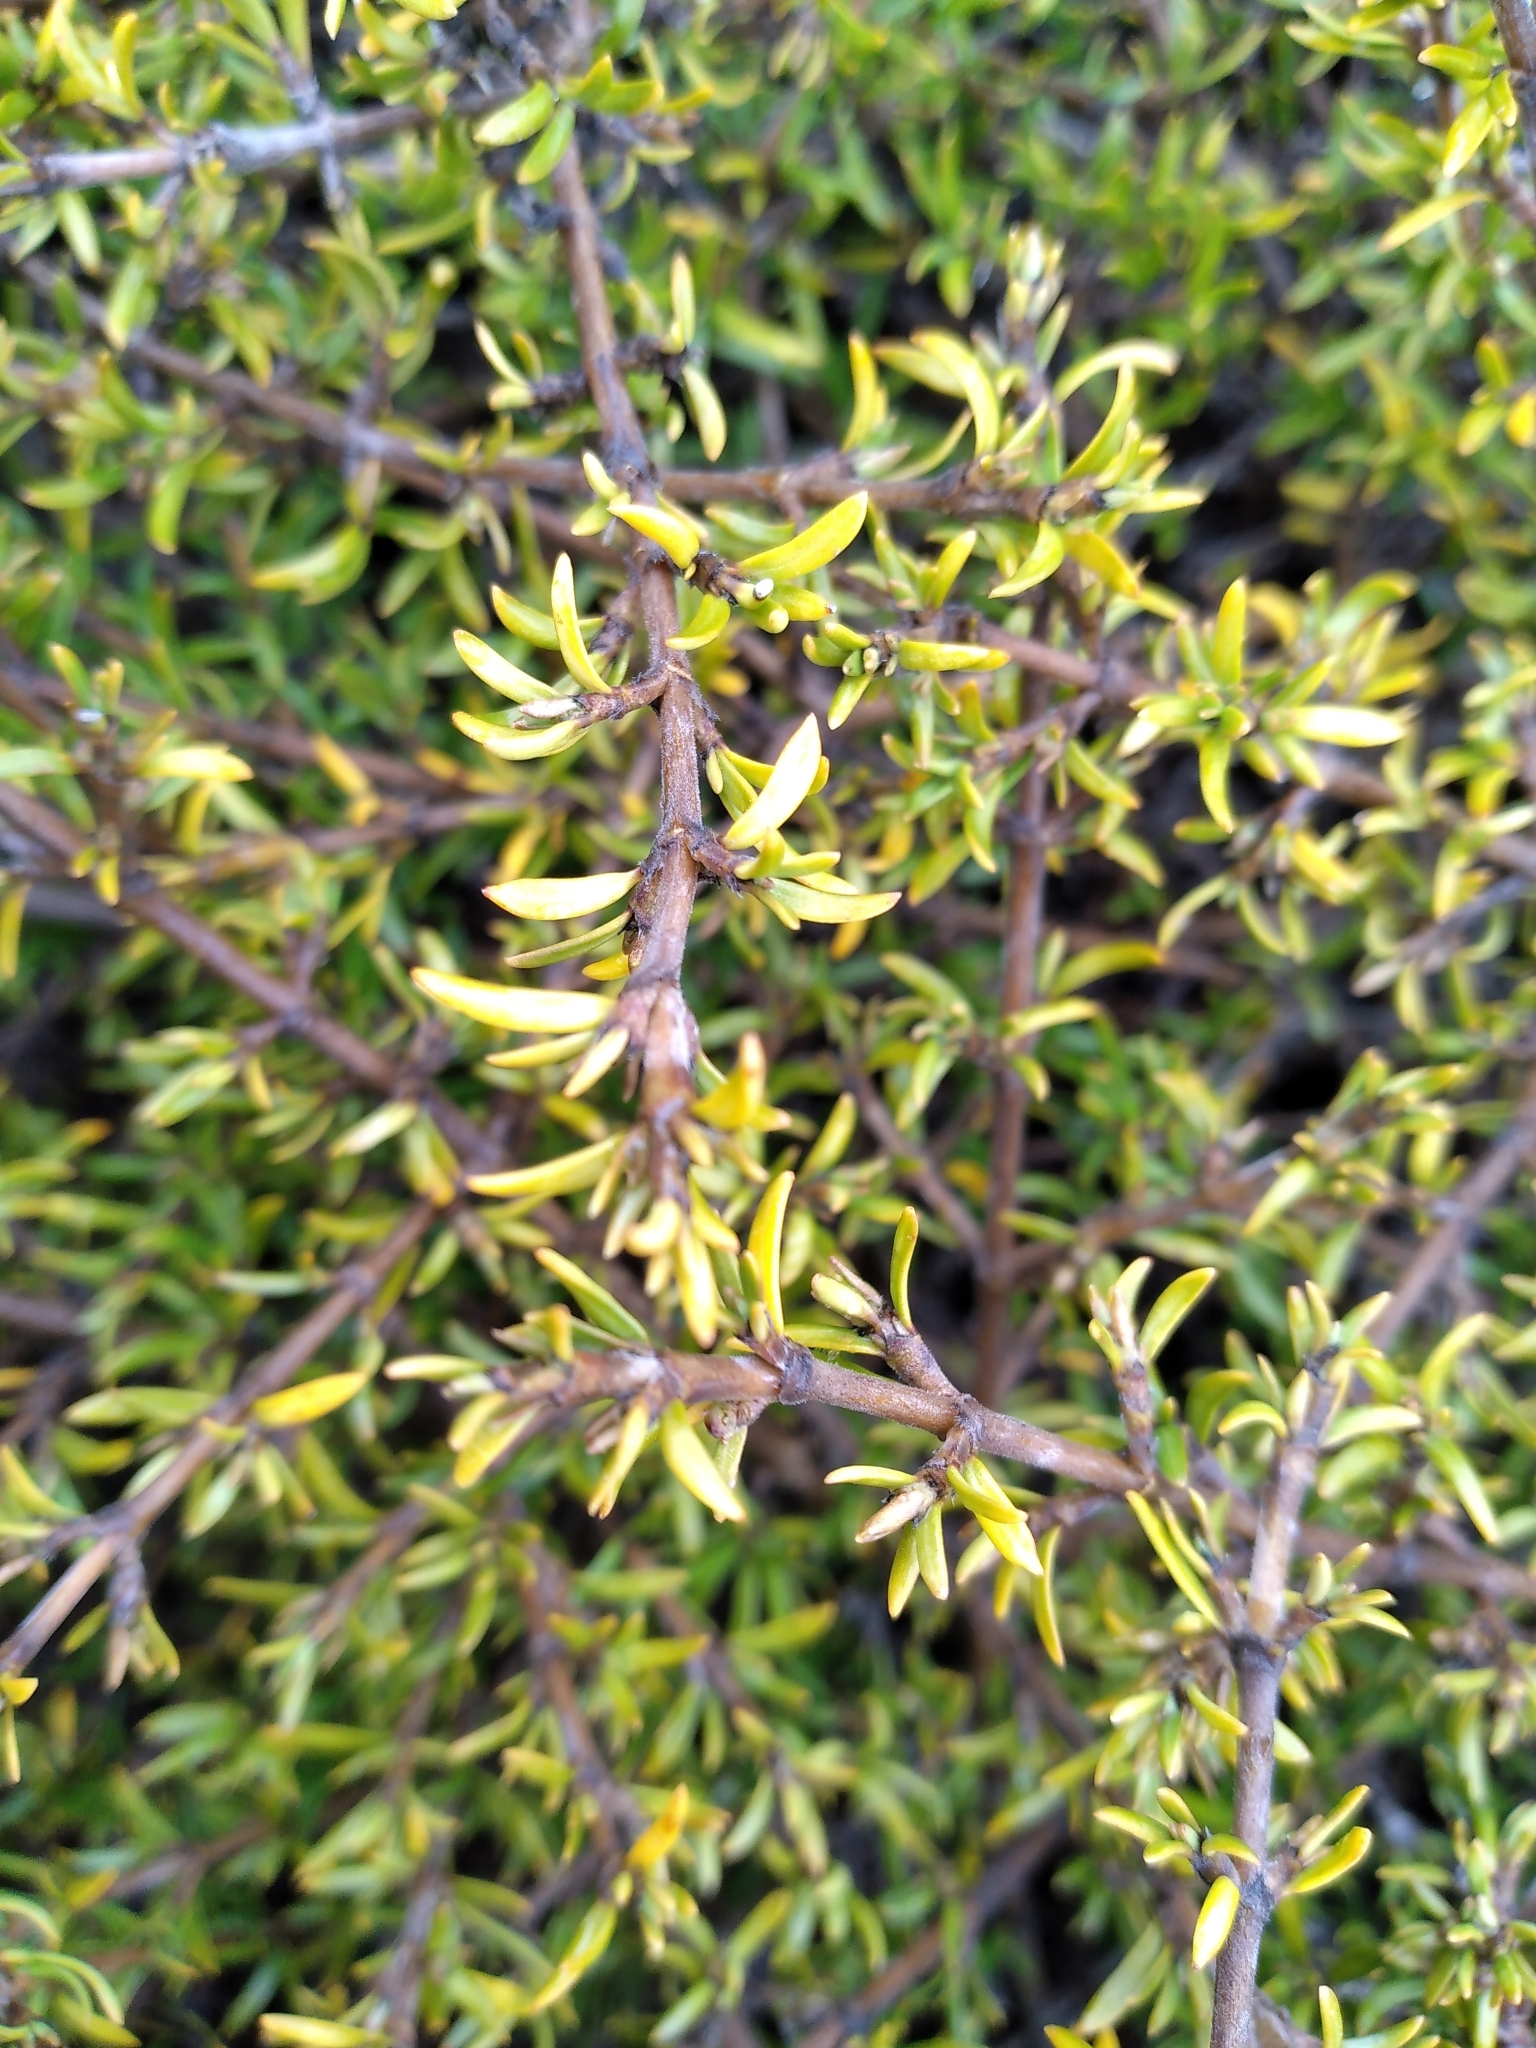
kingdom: Plantae
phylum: Tracheophyta
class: Magnoliopsida
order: Gentianales
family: Rubiaceae
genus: Coprosma
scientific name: Coprosma cheesemanii
